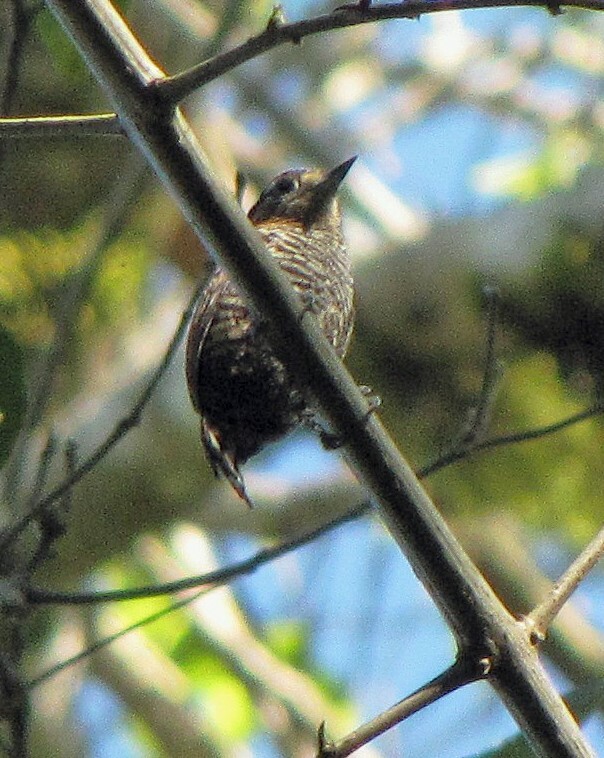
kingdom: Animalia
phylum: Chordata
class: Aves
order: Piciformes
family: Picidae
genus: Picumnus
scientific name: Picumnus temminckii
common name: Ochre-collared piculet
